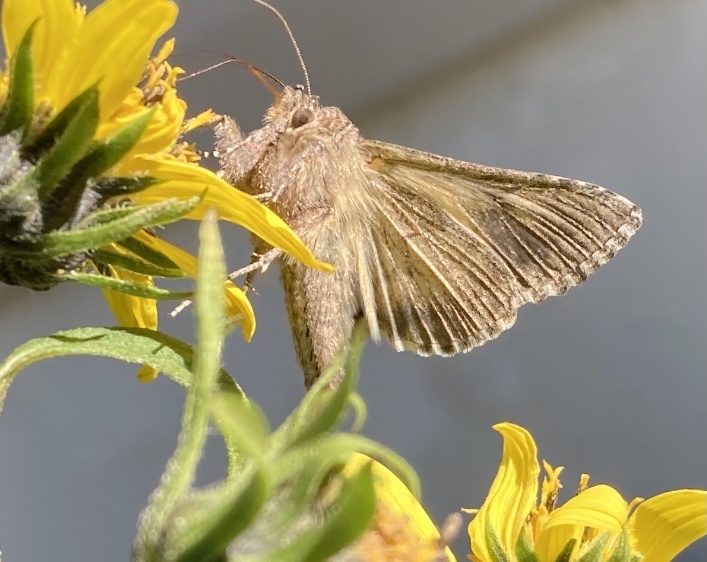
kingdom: Animalia
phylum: Arthropoda
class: Insecta
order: Lepidoptera
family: Noctuidae
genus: Autographa
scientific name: Autographa californica
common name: Alfalfa looper
